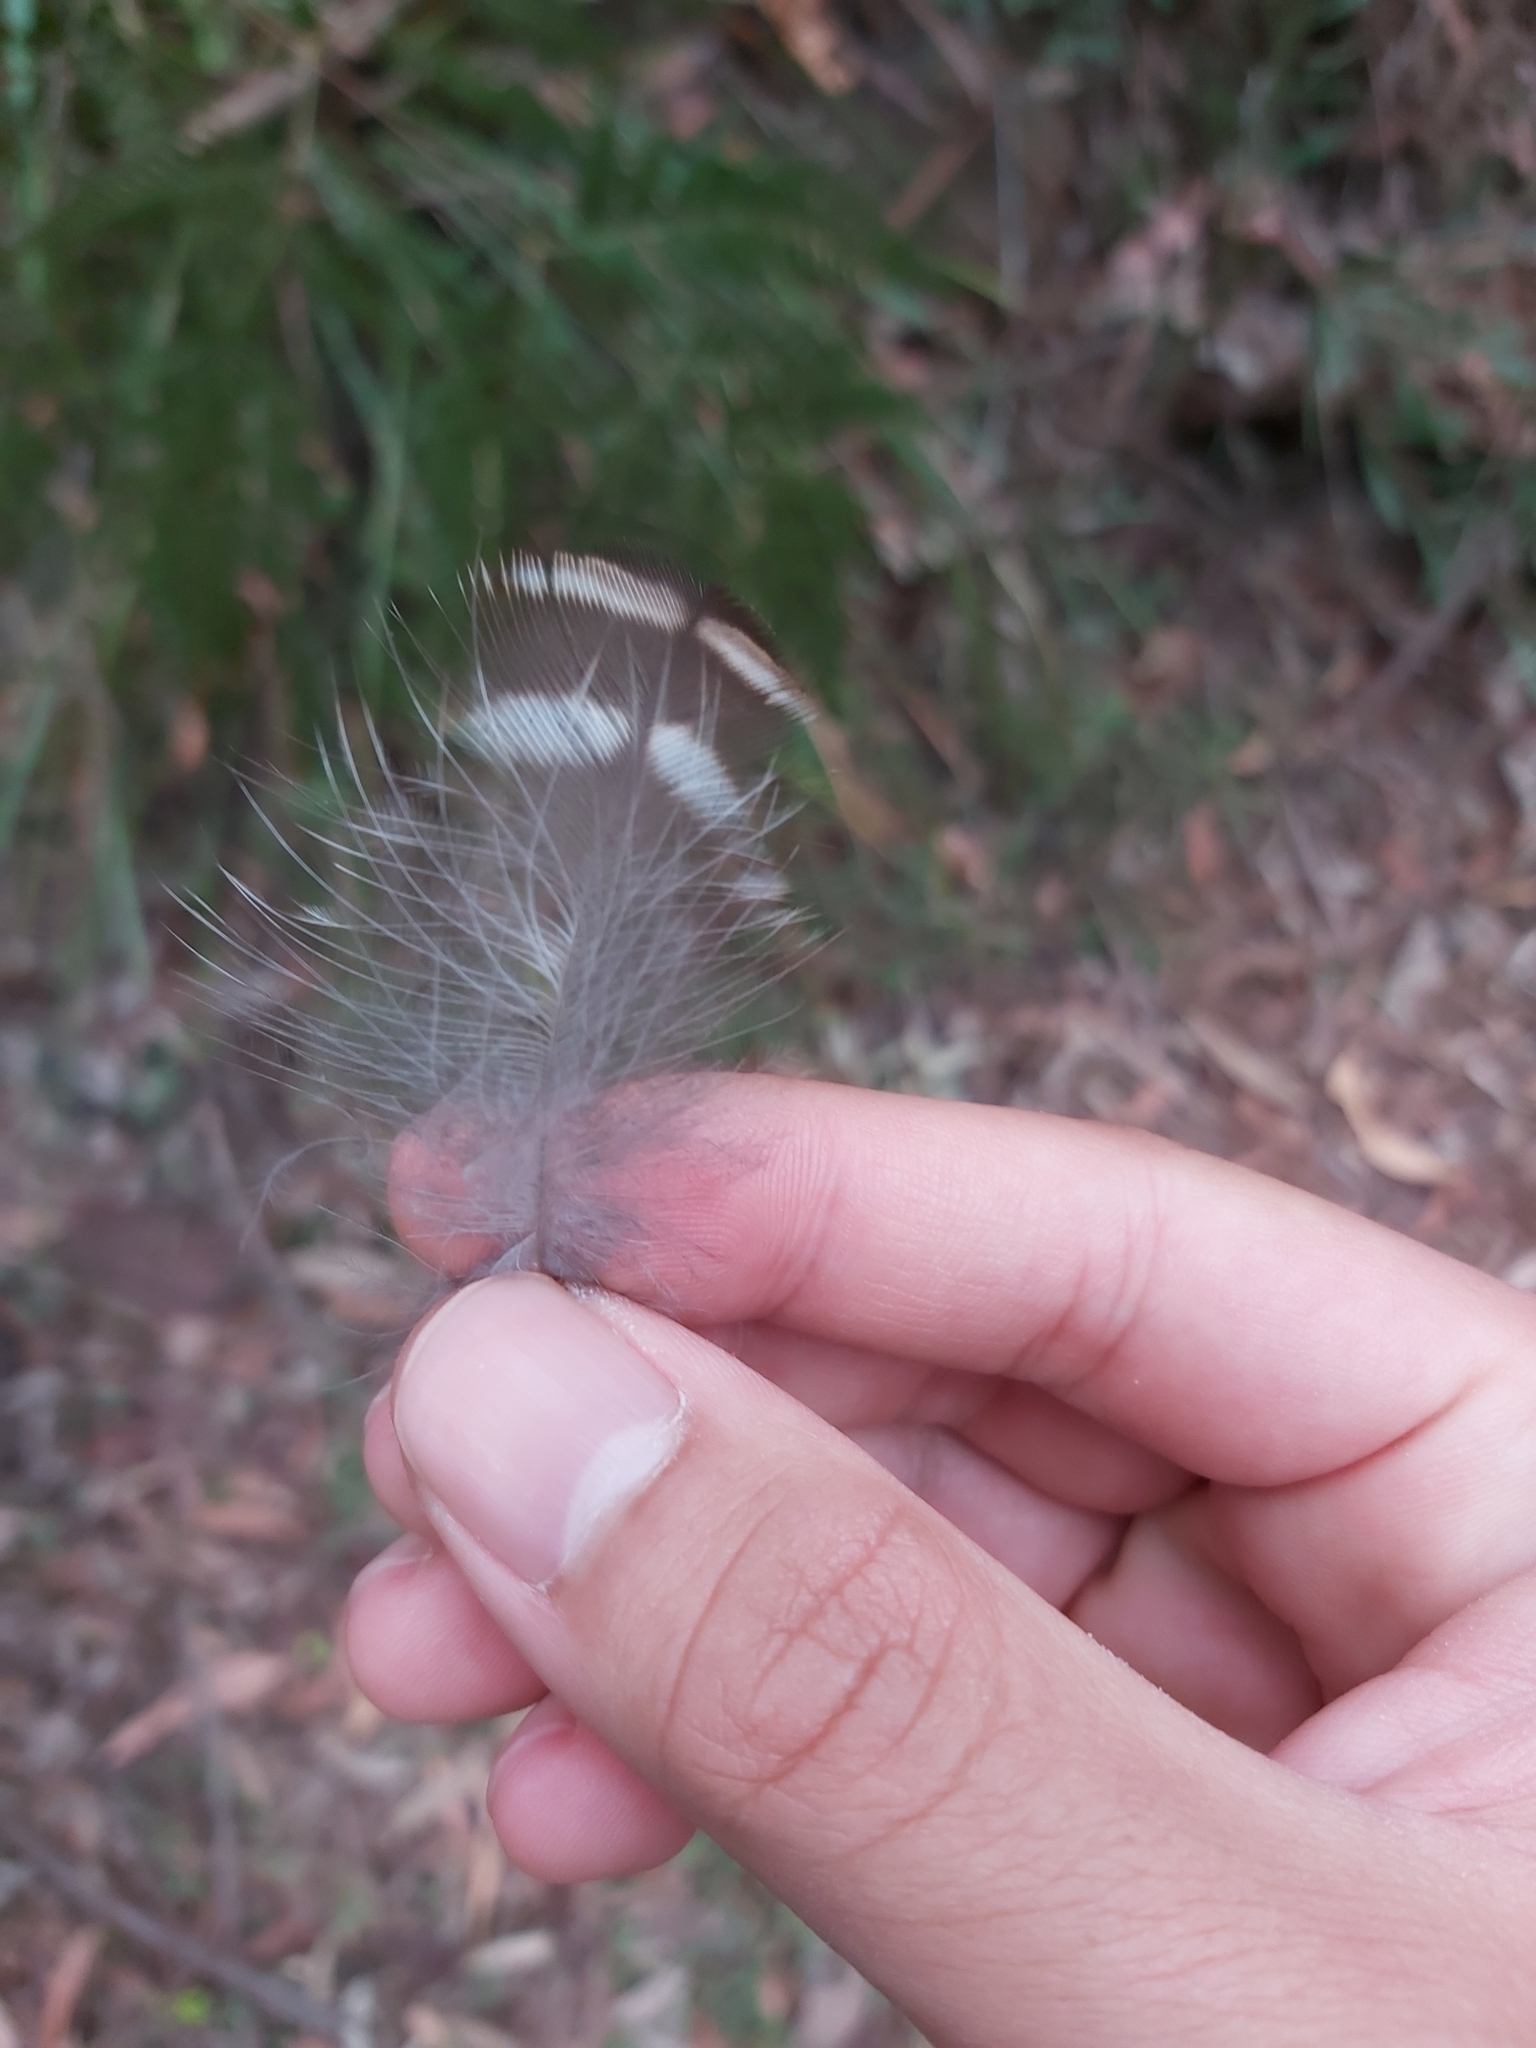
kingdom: Animalia
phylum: Chordata
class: Aves
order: Strigiformes
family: Strigidae
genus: Ninox
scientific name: Ninox strenua
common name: Powerful owl
